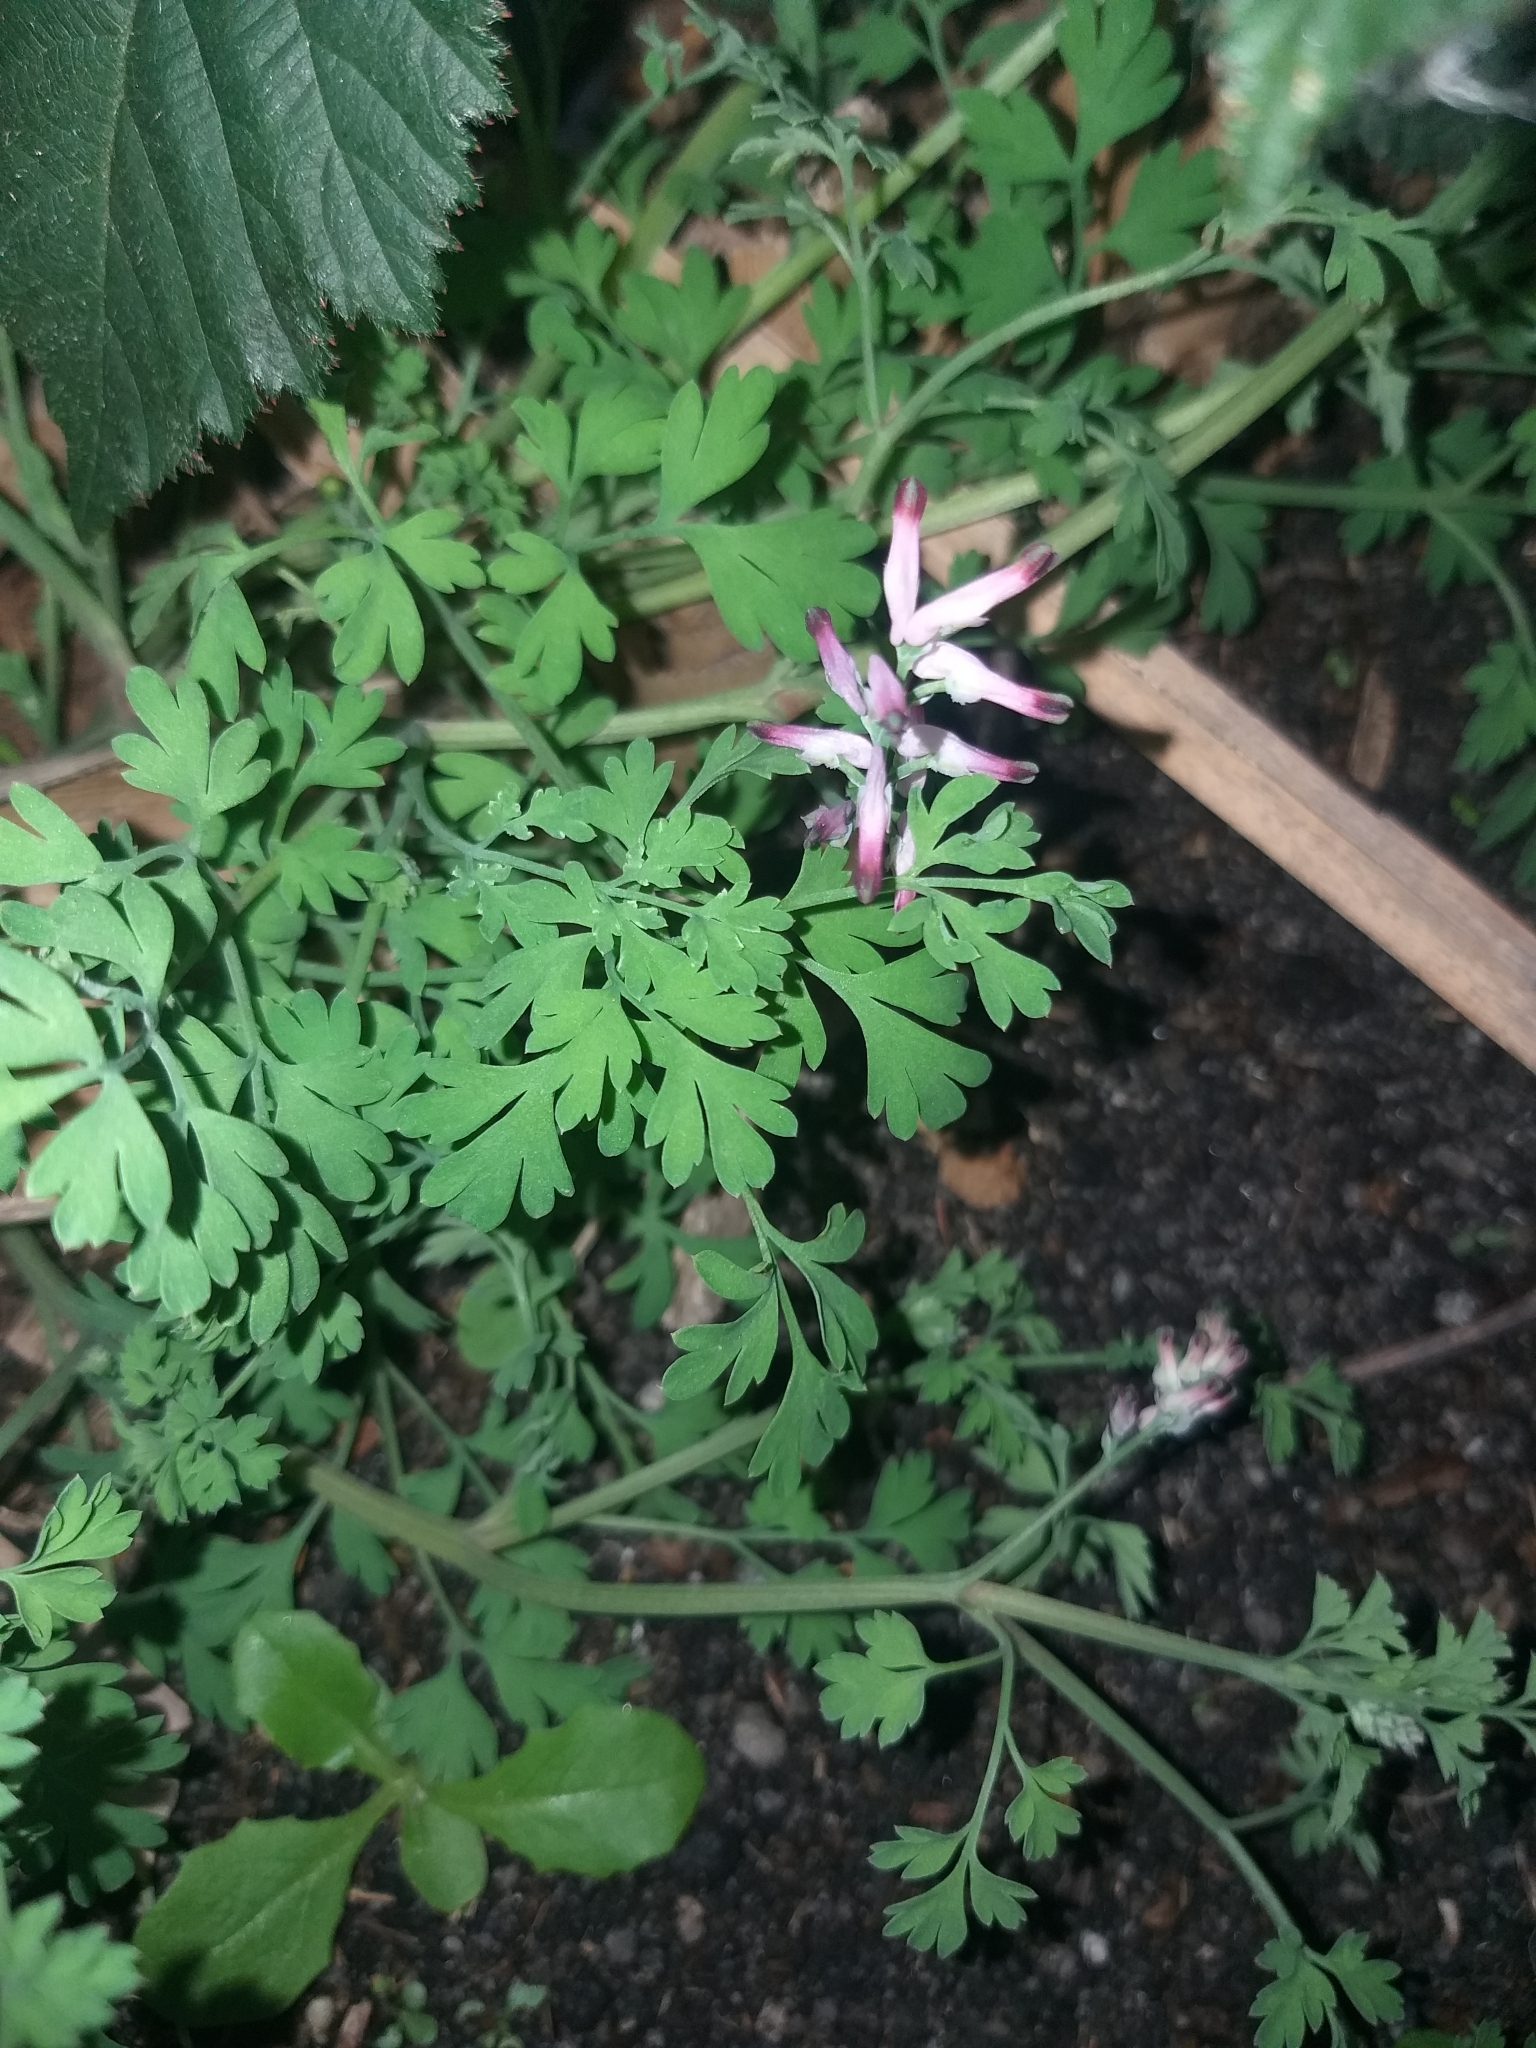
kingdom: Plantae
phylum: Tracheophyta
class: Magnoliopsida
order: Ranunculales
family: Papaveraceae
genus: Fumaria
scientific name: Fumaria muralis
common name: Common ramping-fumitory
